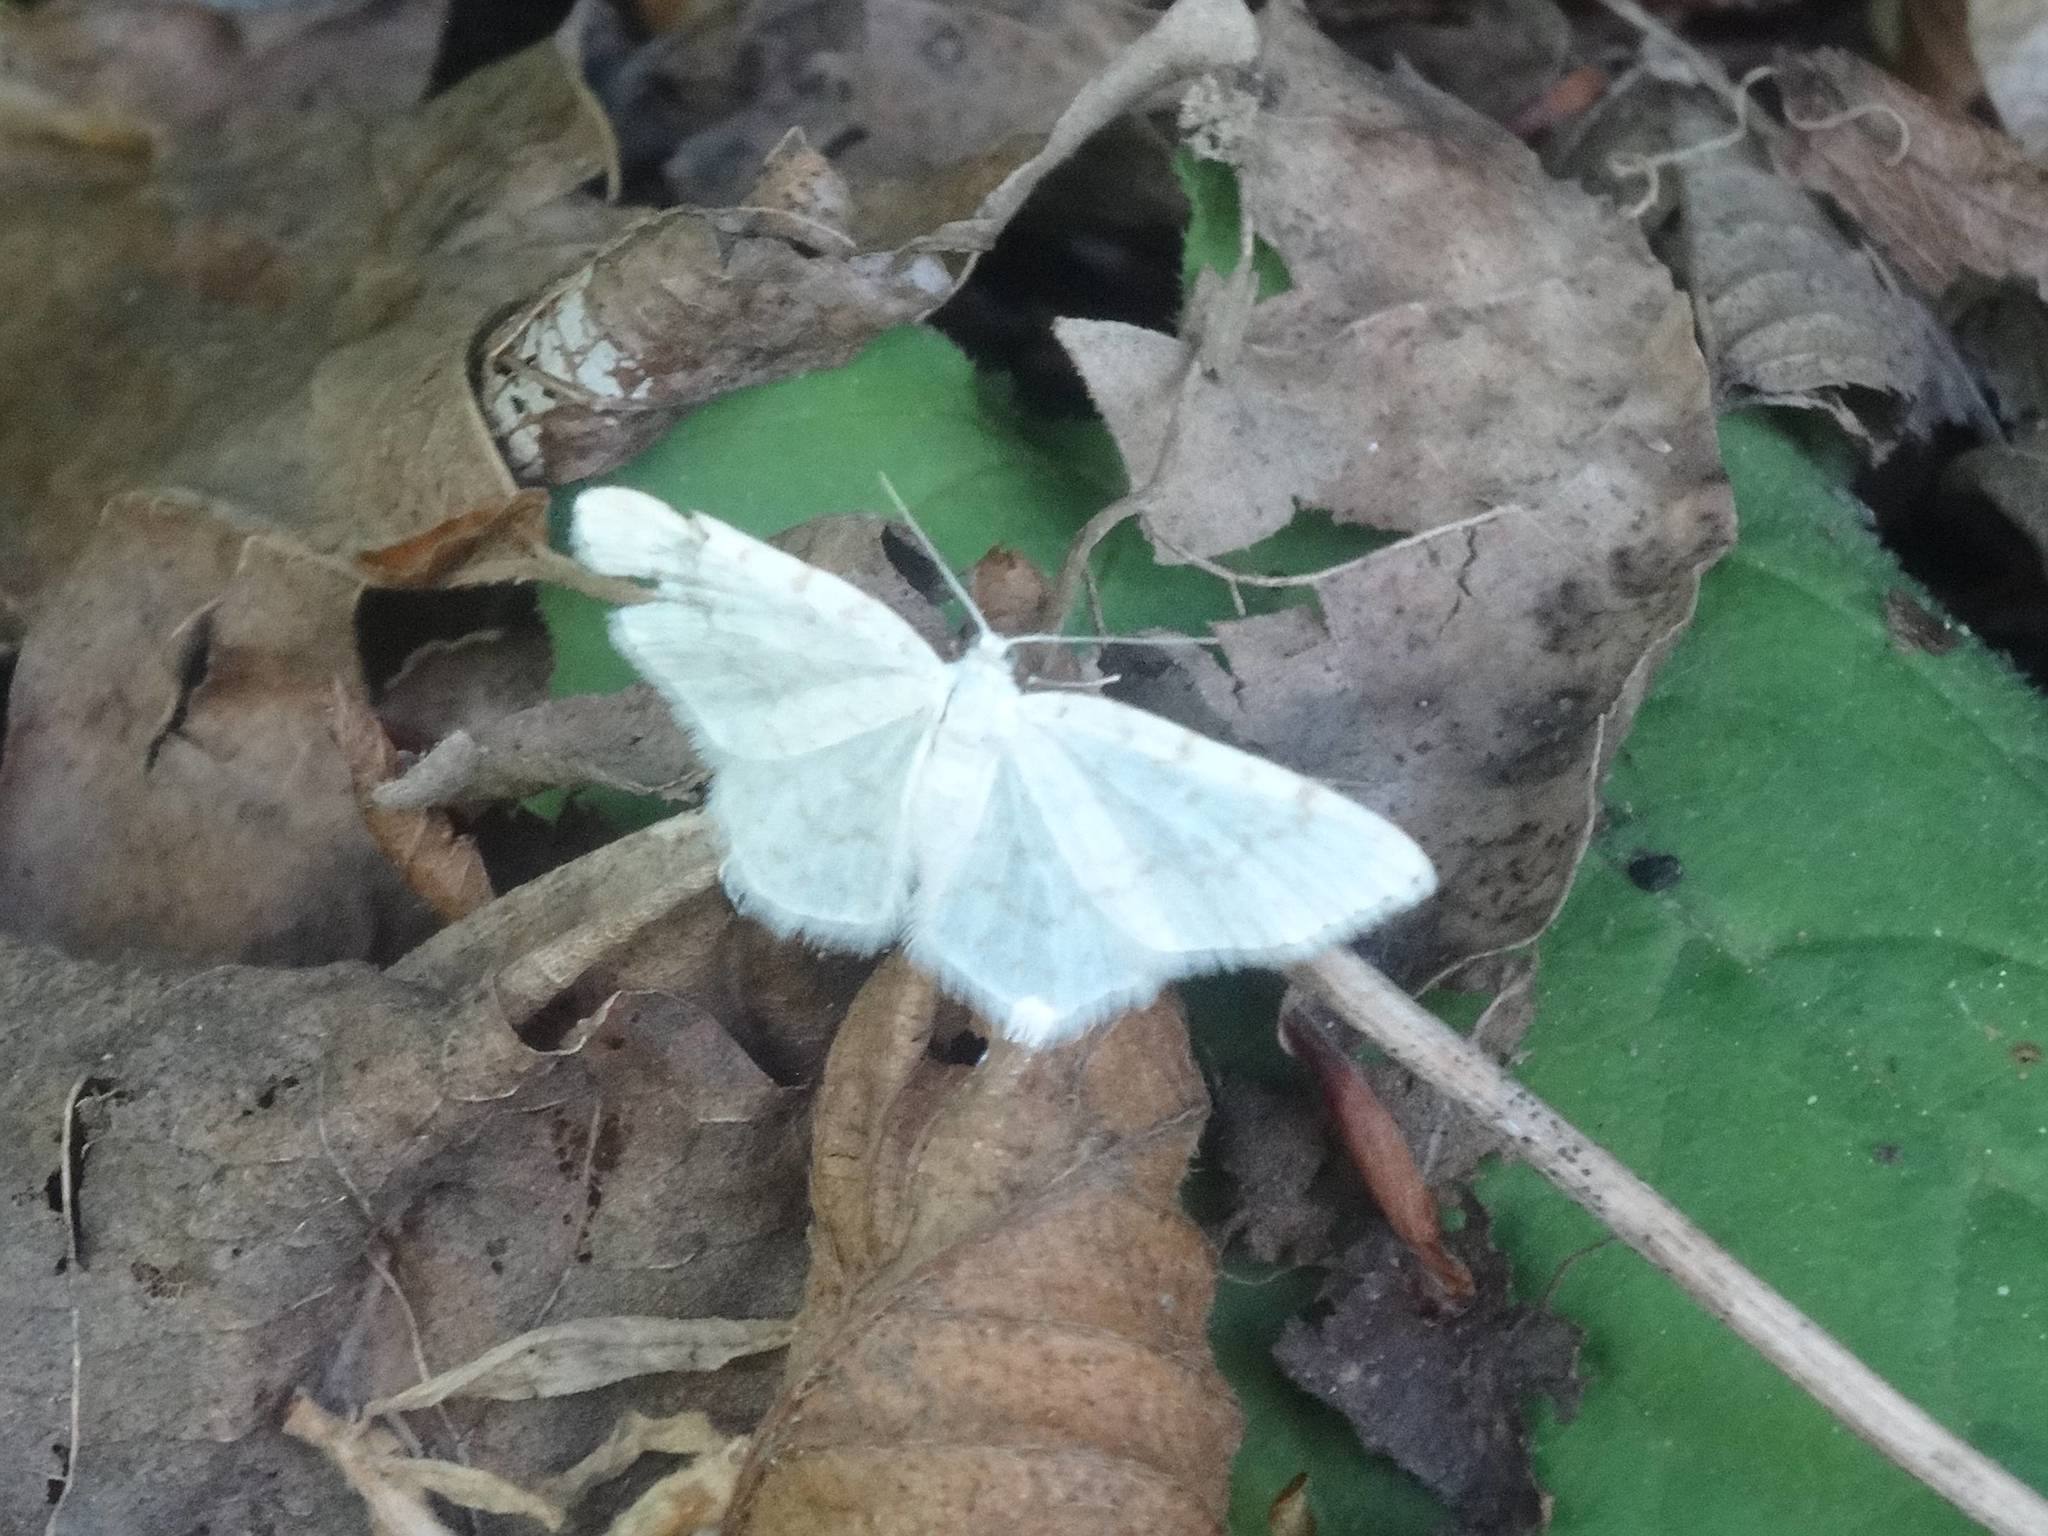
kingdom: Animalia
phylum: Arthropoda
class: Insecta
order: Lepidoptera
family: Geometridae
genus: Asthena
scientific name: Asthena albulata
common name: Small white wave
